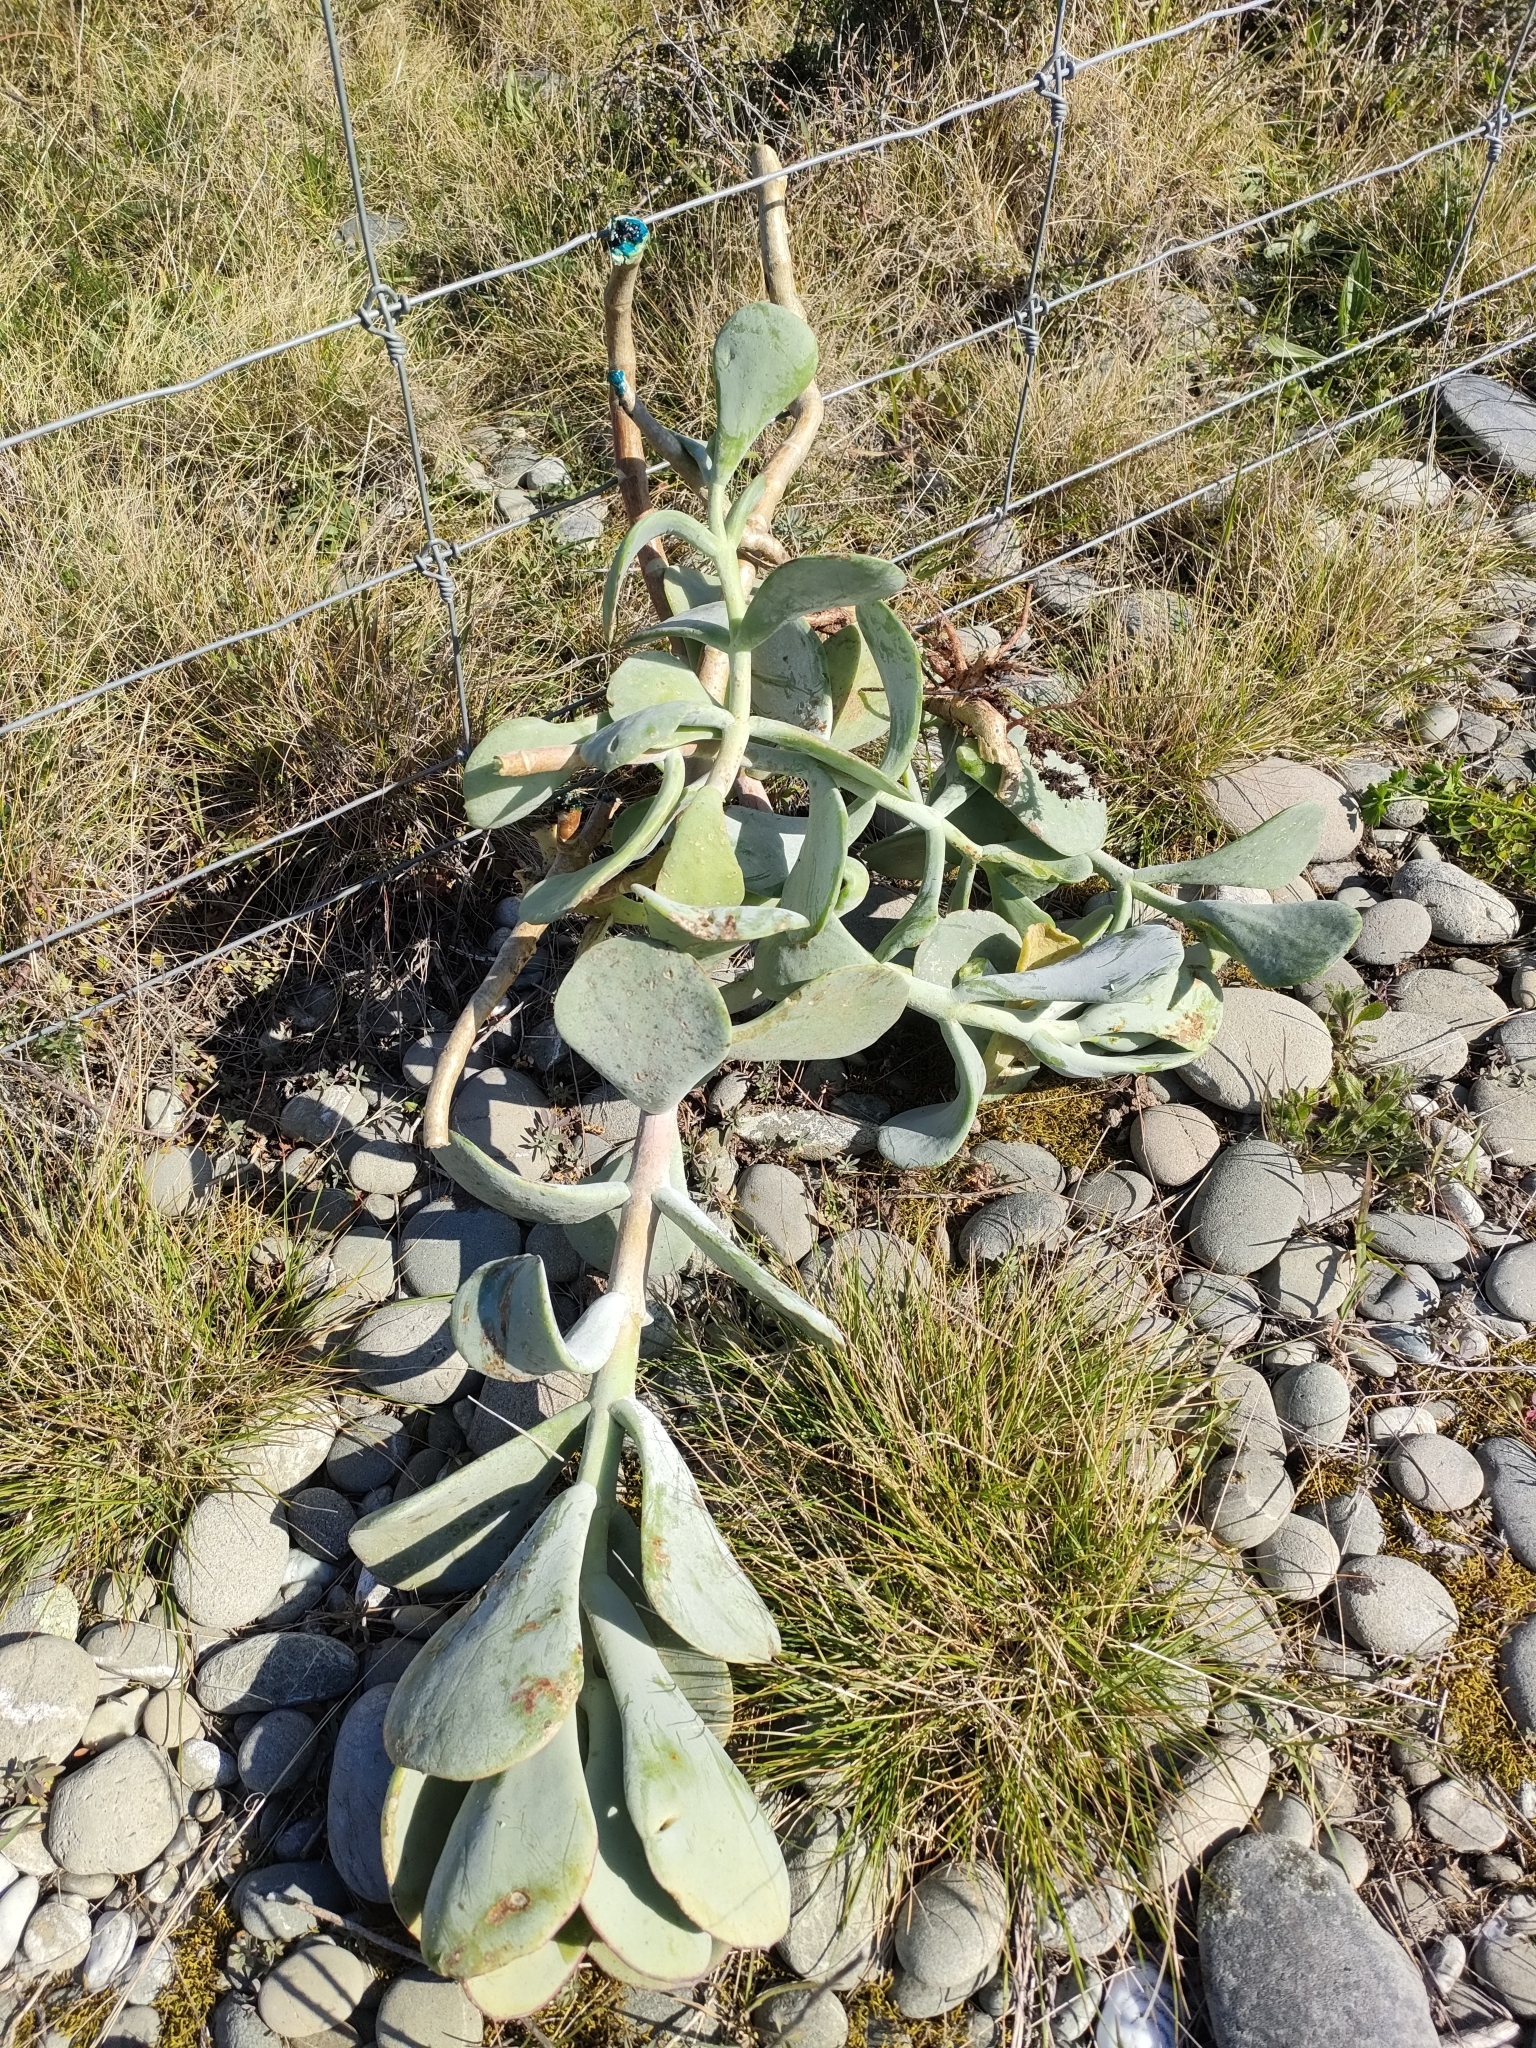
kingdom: Plantae
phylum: Tracheophyta
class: Magnoliopsida
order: Saxifragales
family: Crassulaceae
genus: Cotyledon
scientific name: Cotyledon orbiculata
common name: Pig's ear
